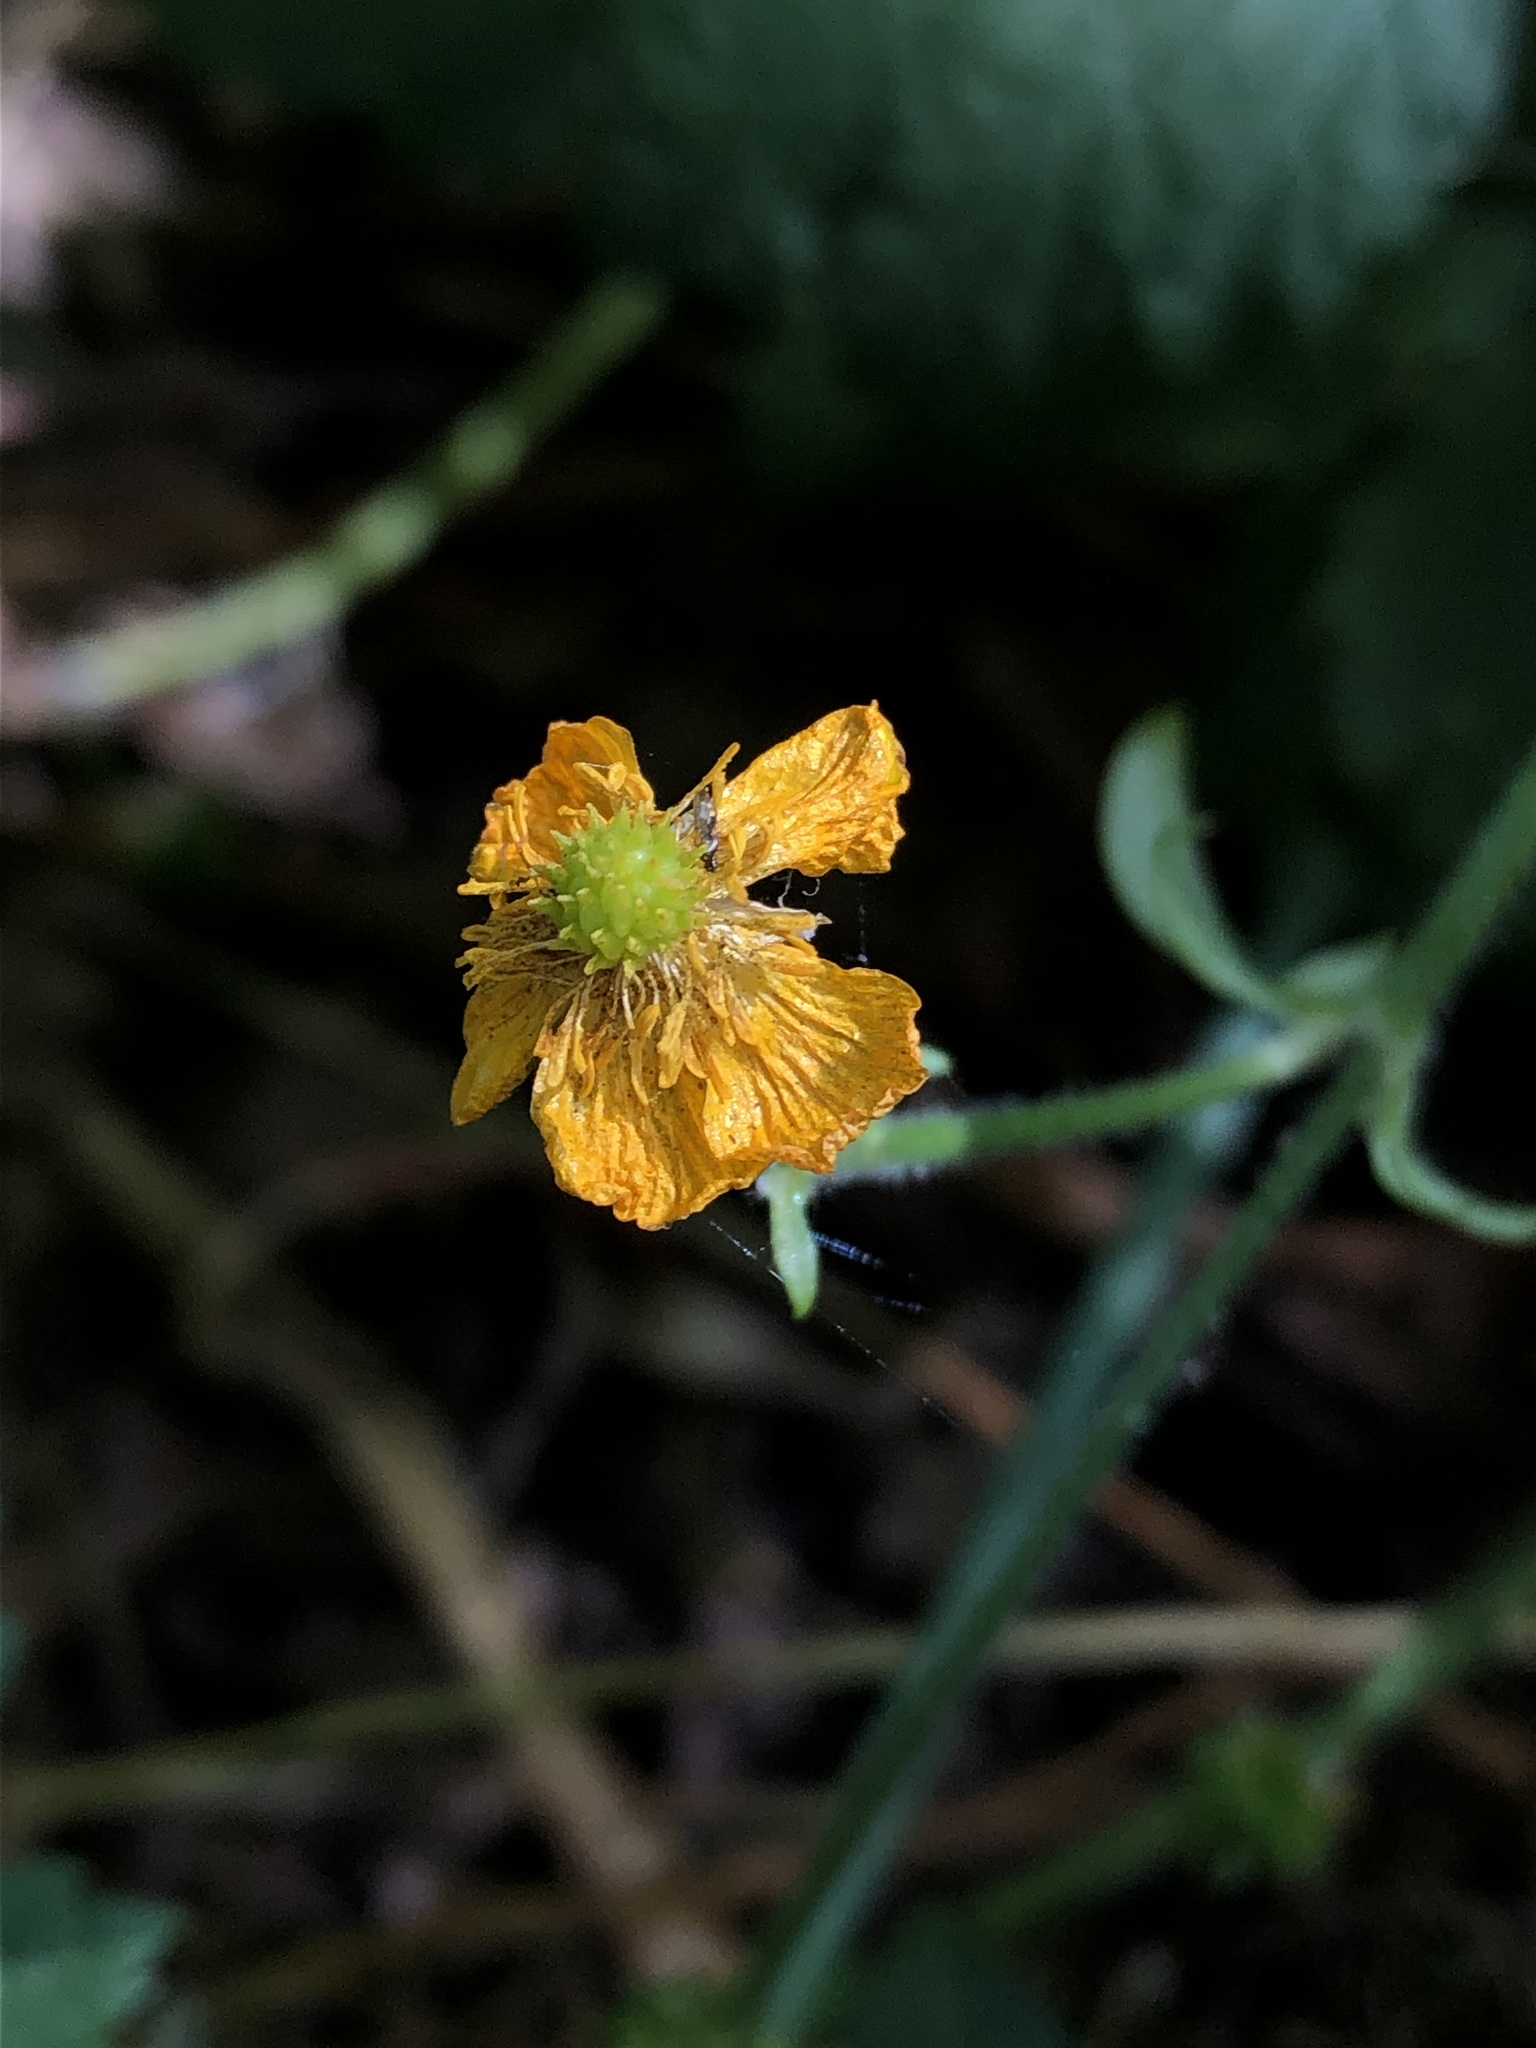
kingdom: Plantae
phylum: Tracheophyta
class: Magnoliopsida
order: Ranunculales
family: Ranunculaceae
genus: Ranunculus
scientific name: Ranunculus repens
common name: Creeping buttercup
